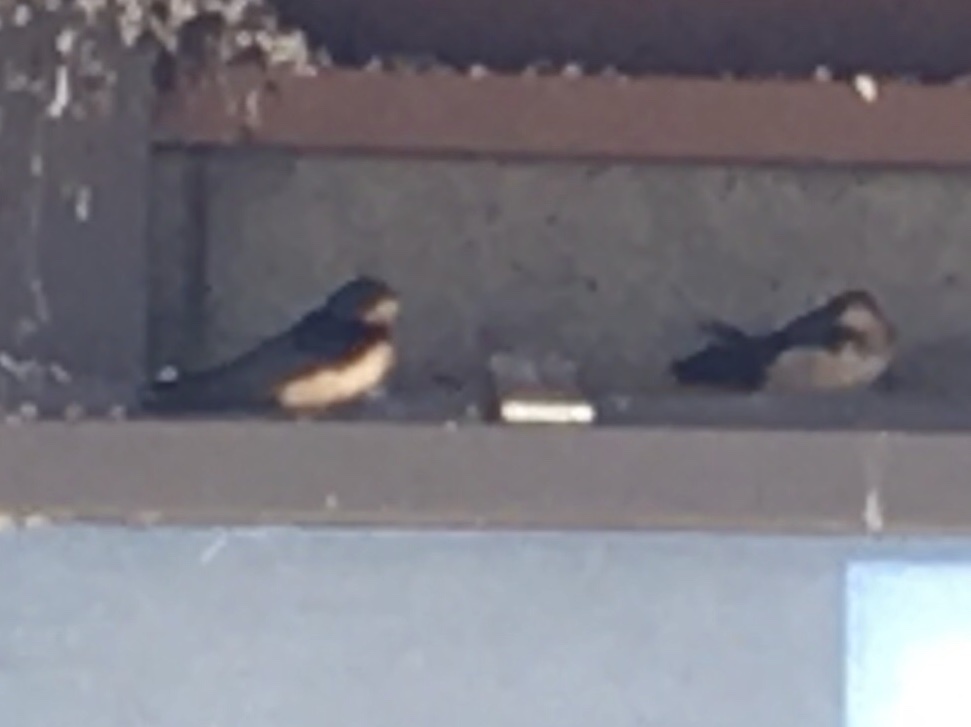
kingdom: Animalia
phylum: Chordata
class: Aves
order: Passeriformes
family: Hirundinidae
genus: Hirundo
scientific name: Hirundo rustica
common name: Barn swallow
